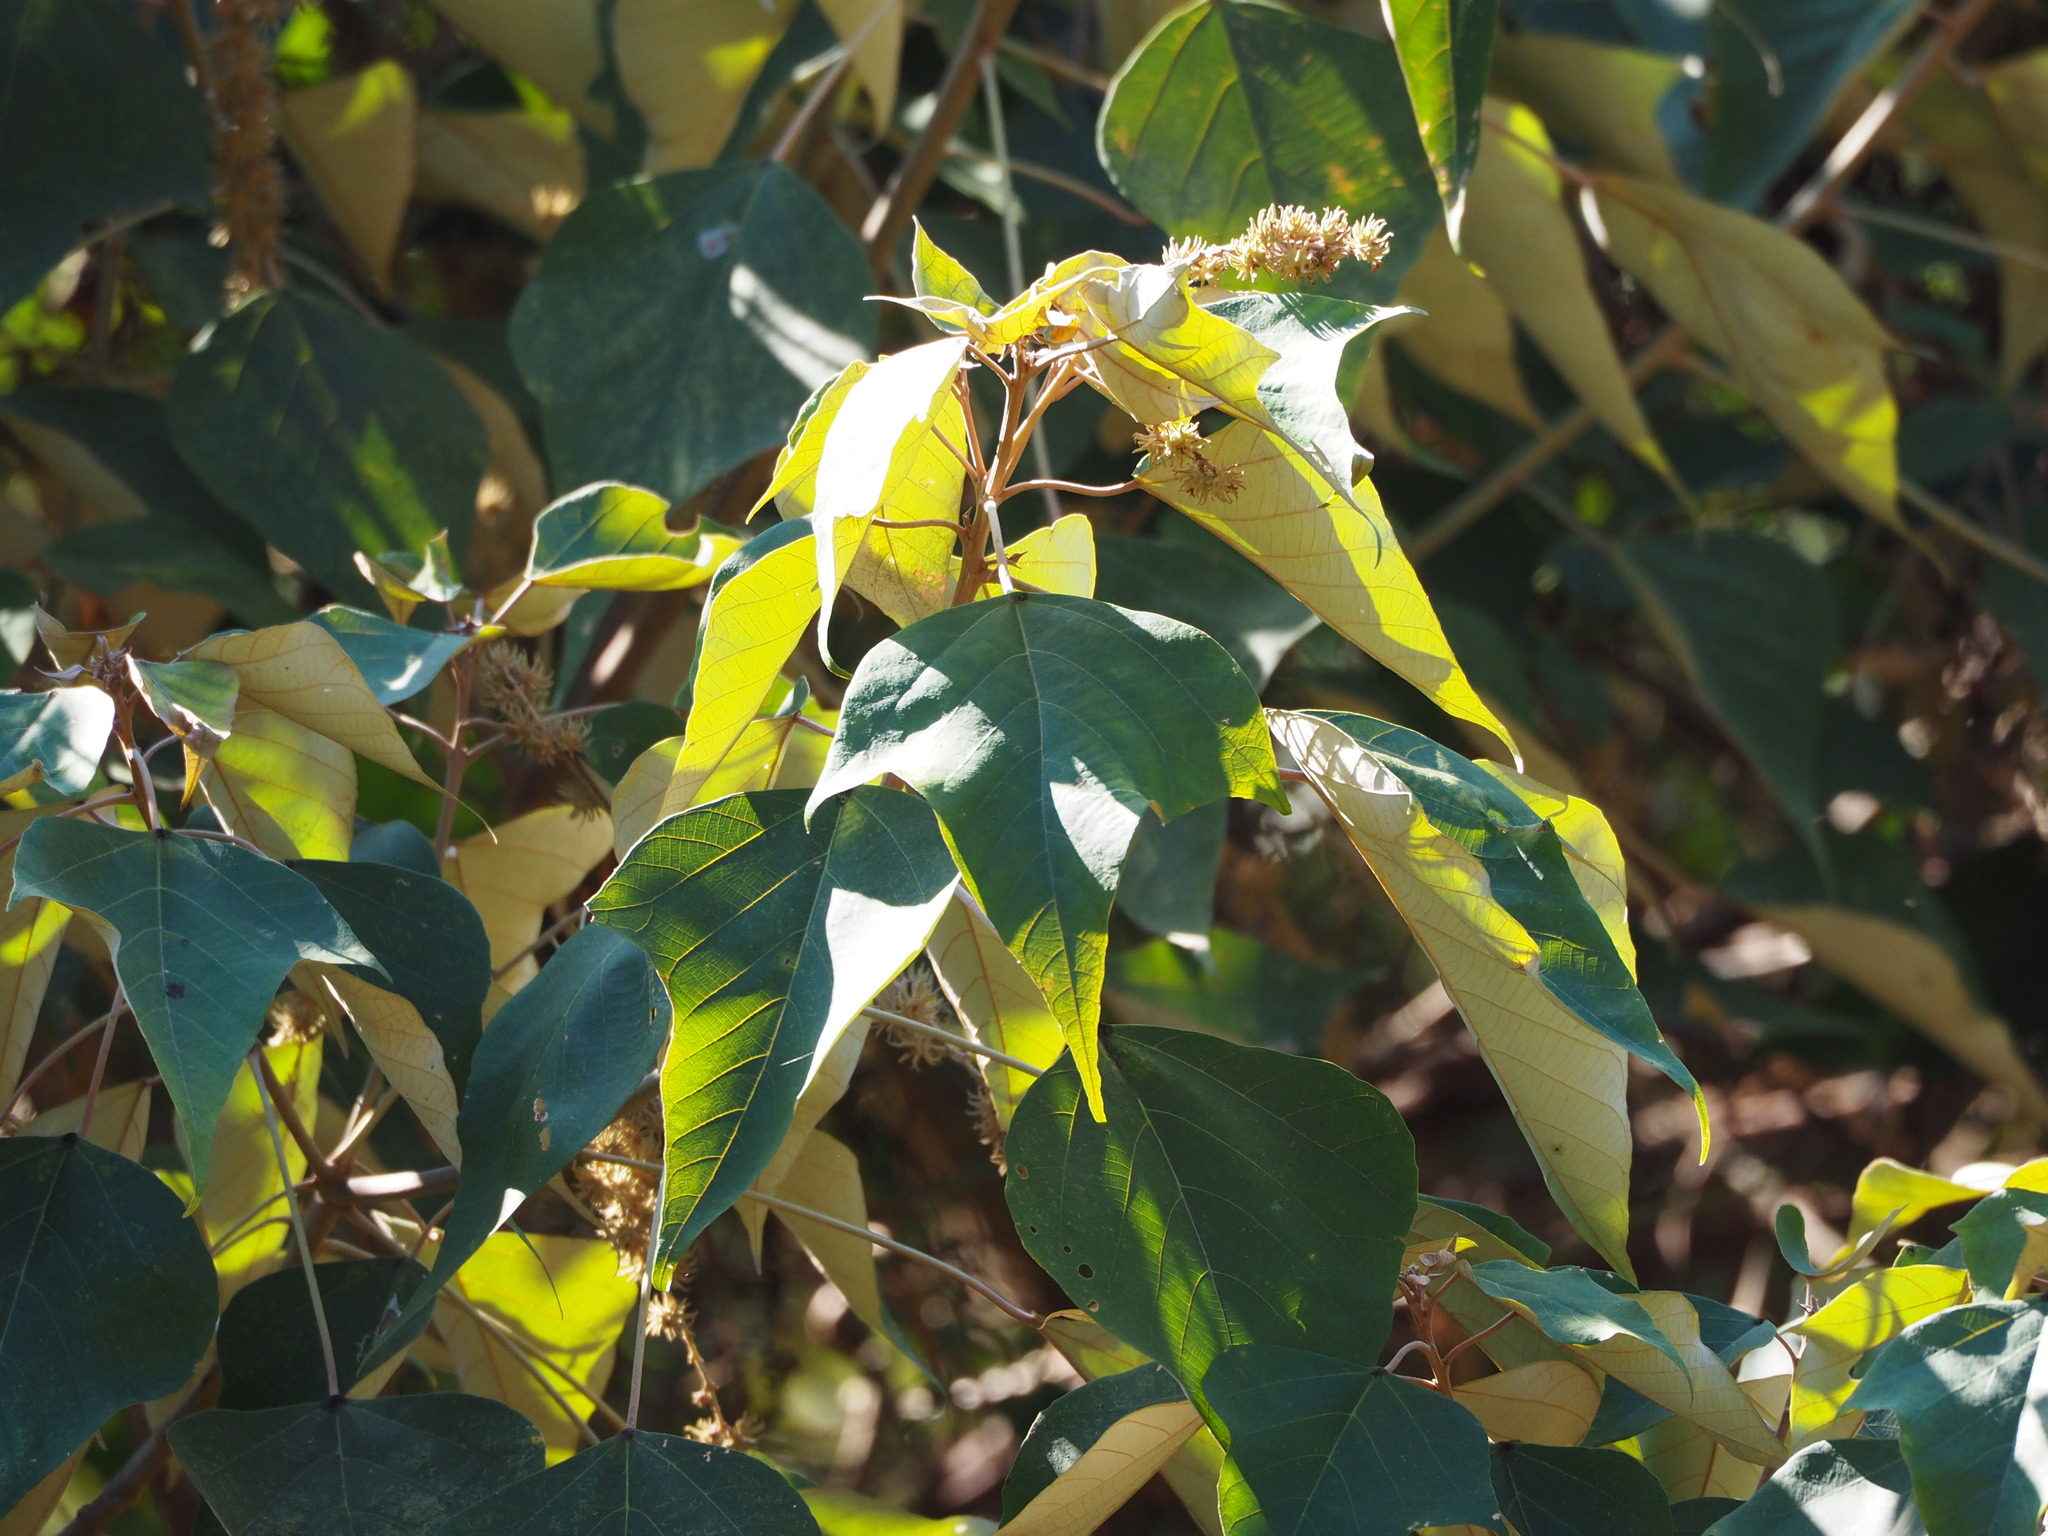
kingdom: Plantae
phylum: Tracheophyta
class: Magnoliopsida
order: Malpighiales
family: Euphorbiaceae
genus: Mallotus
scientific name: Mallotus paniculatus
